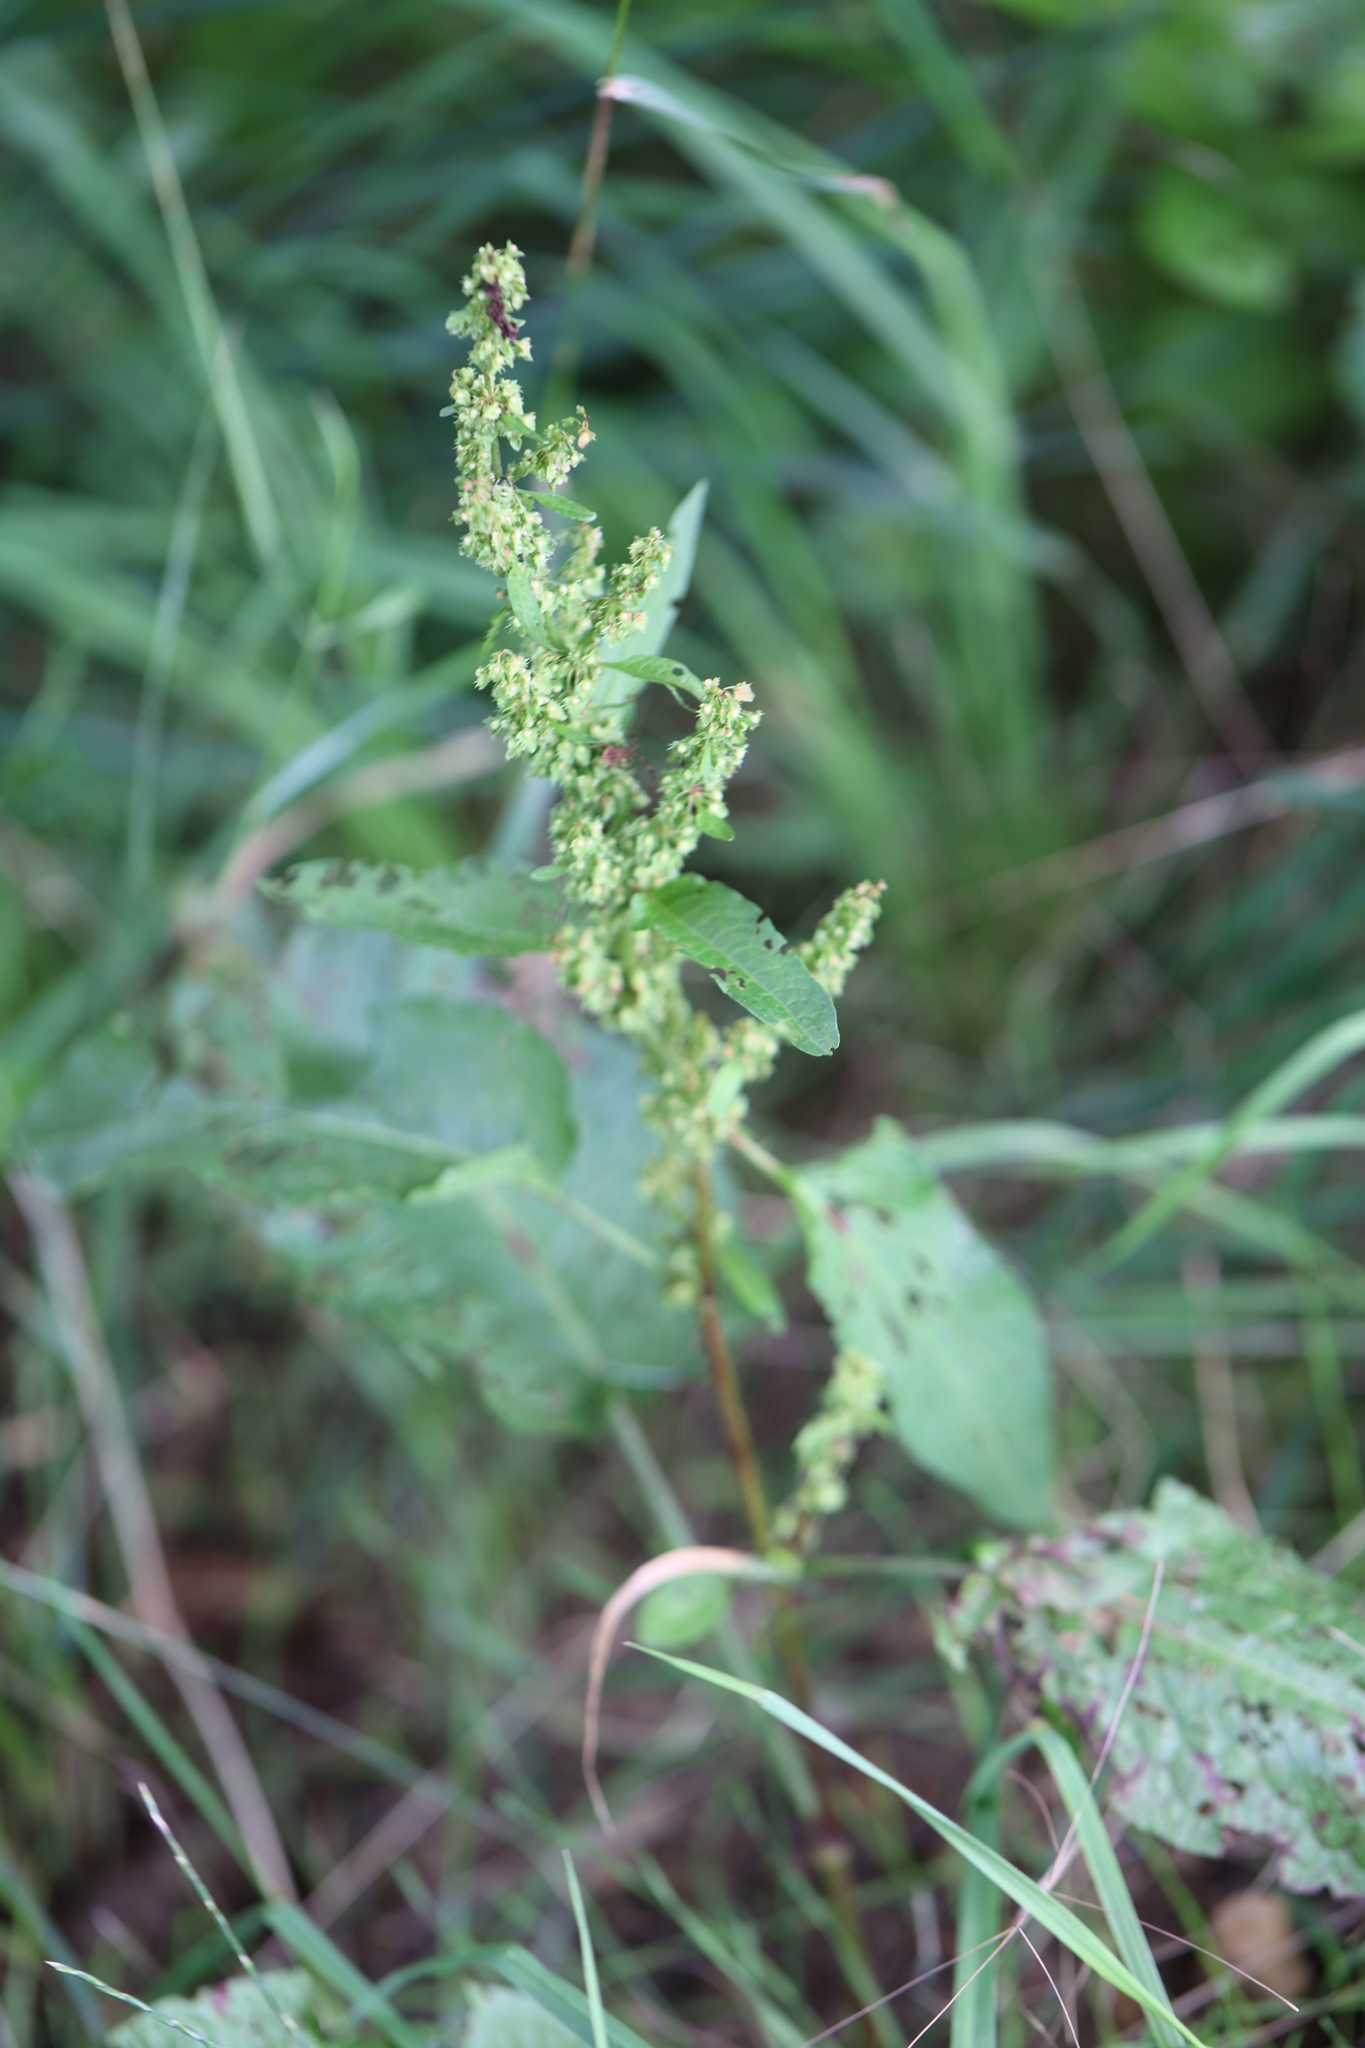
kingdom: Plantae
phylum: Tracheophyta
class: Magnoliopsida
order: Caryophyllales
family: Polygonaceae
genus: Rumex
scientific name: Rumex obtusifolius
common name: Bitter dock
